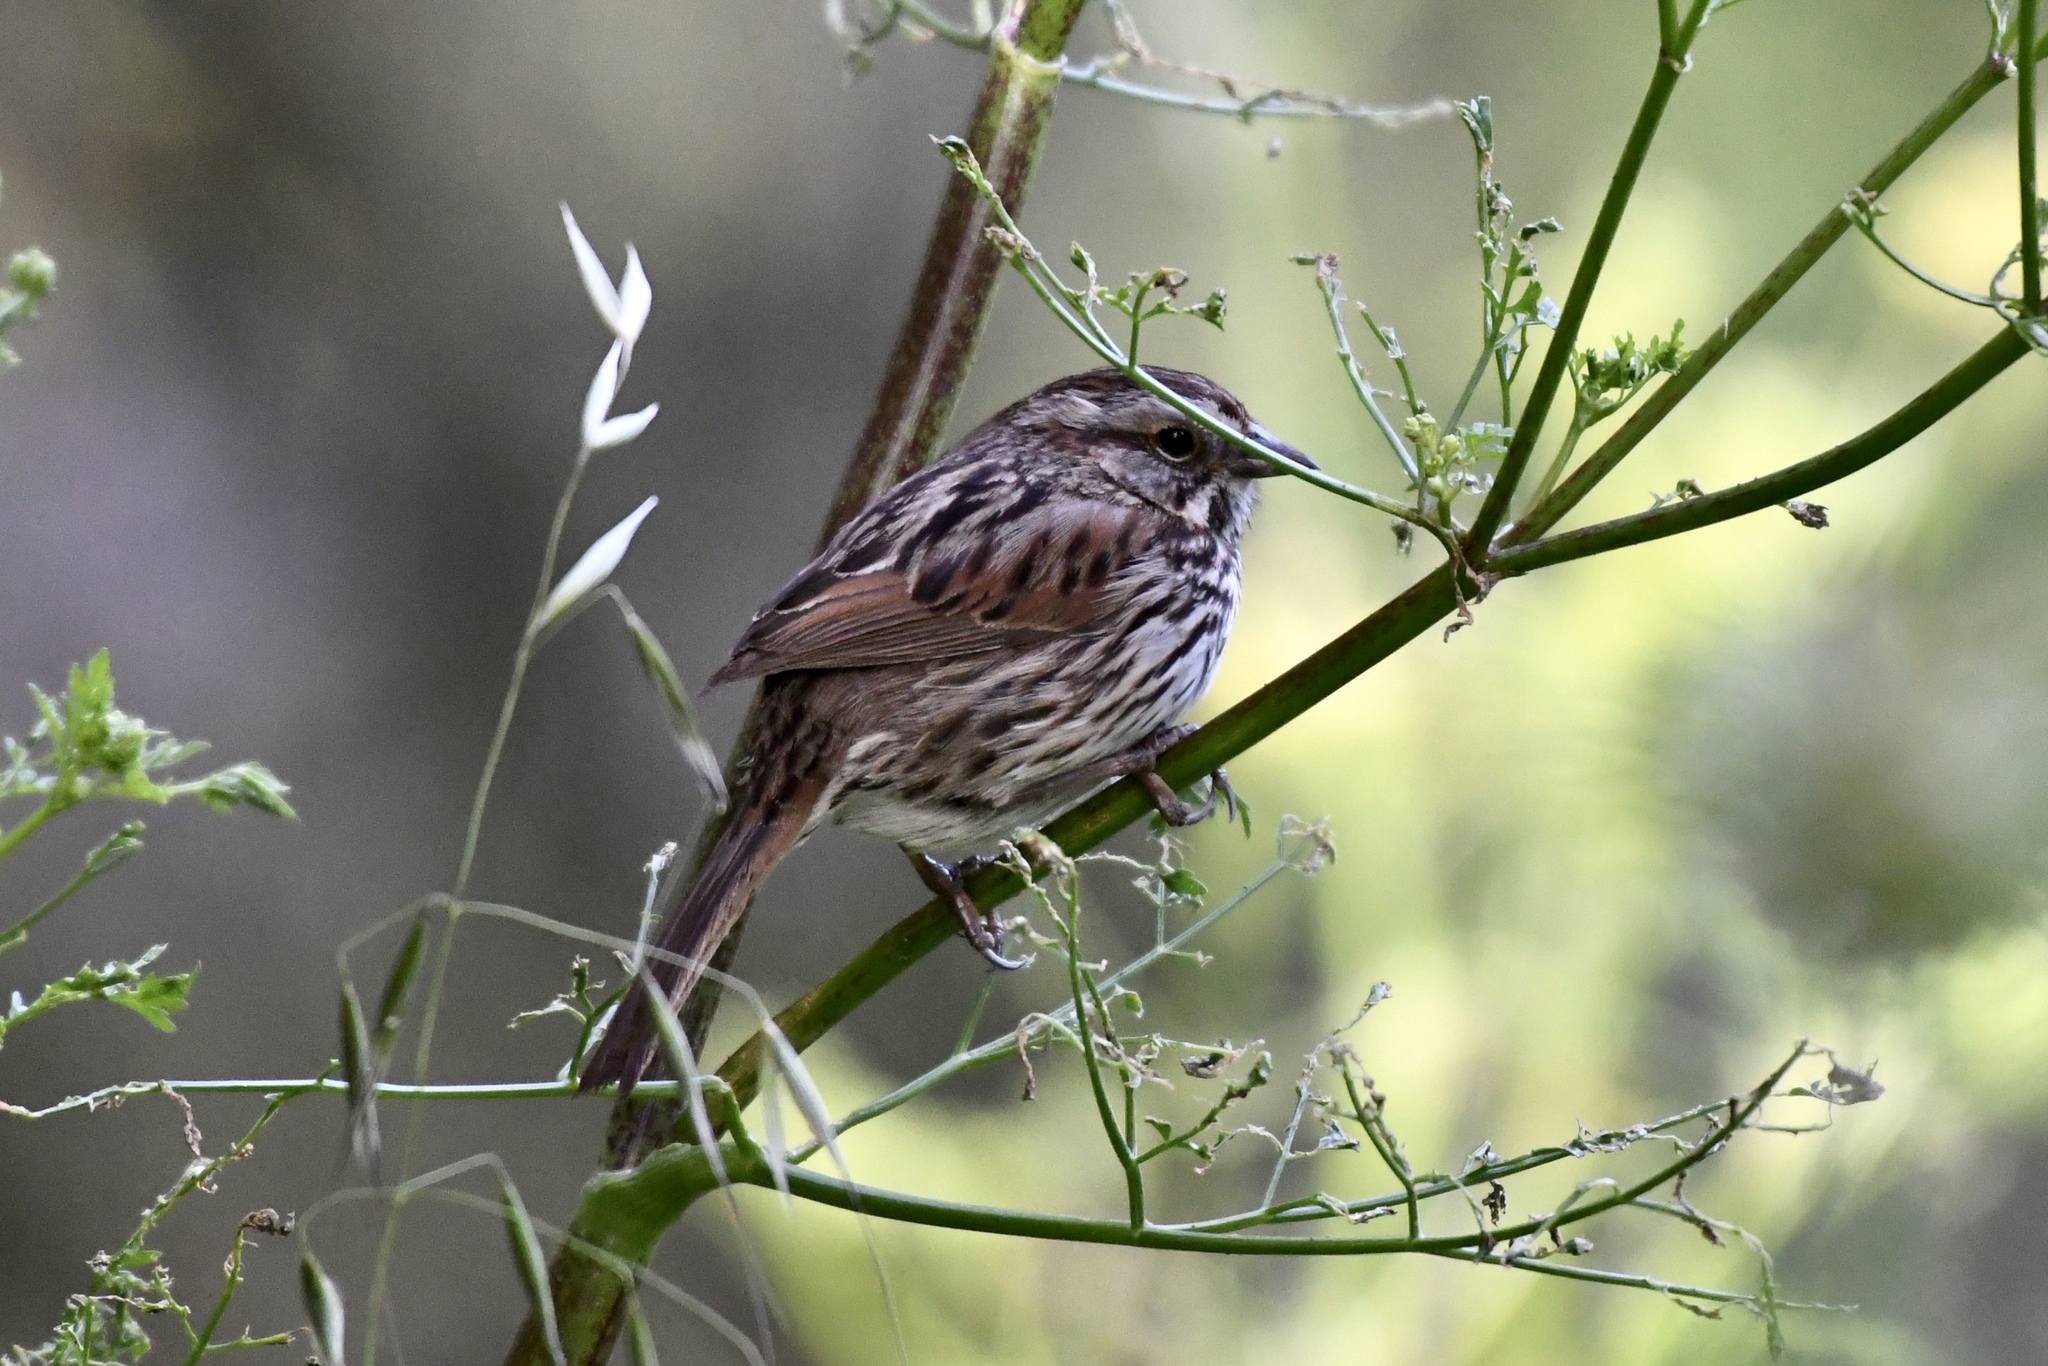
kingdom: Animalia
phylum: Chordata
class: Aves
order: Passeriformes
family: Passerellidae
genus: Melospiza
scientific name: Melospiza melodia
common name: Song sparrow
